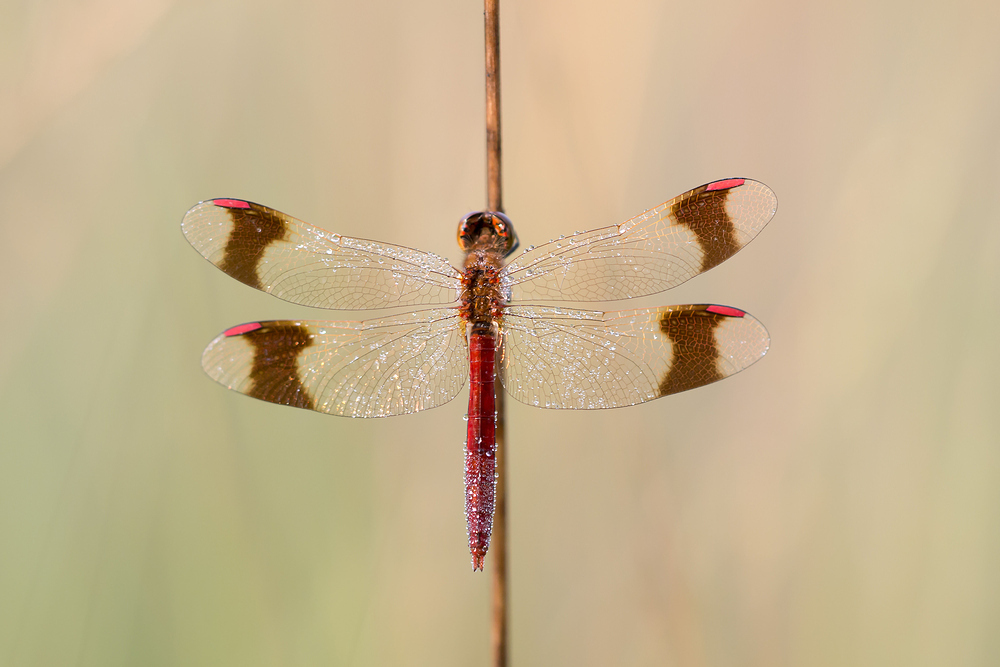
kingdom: Animalia
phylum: Arthropoda
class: Insecta
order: Odonata
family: Libellulidae
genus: Sympetrum
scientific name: Sympetrum pedemontanum
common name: Banded darter
